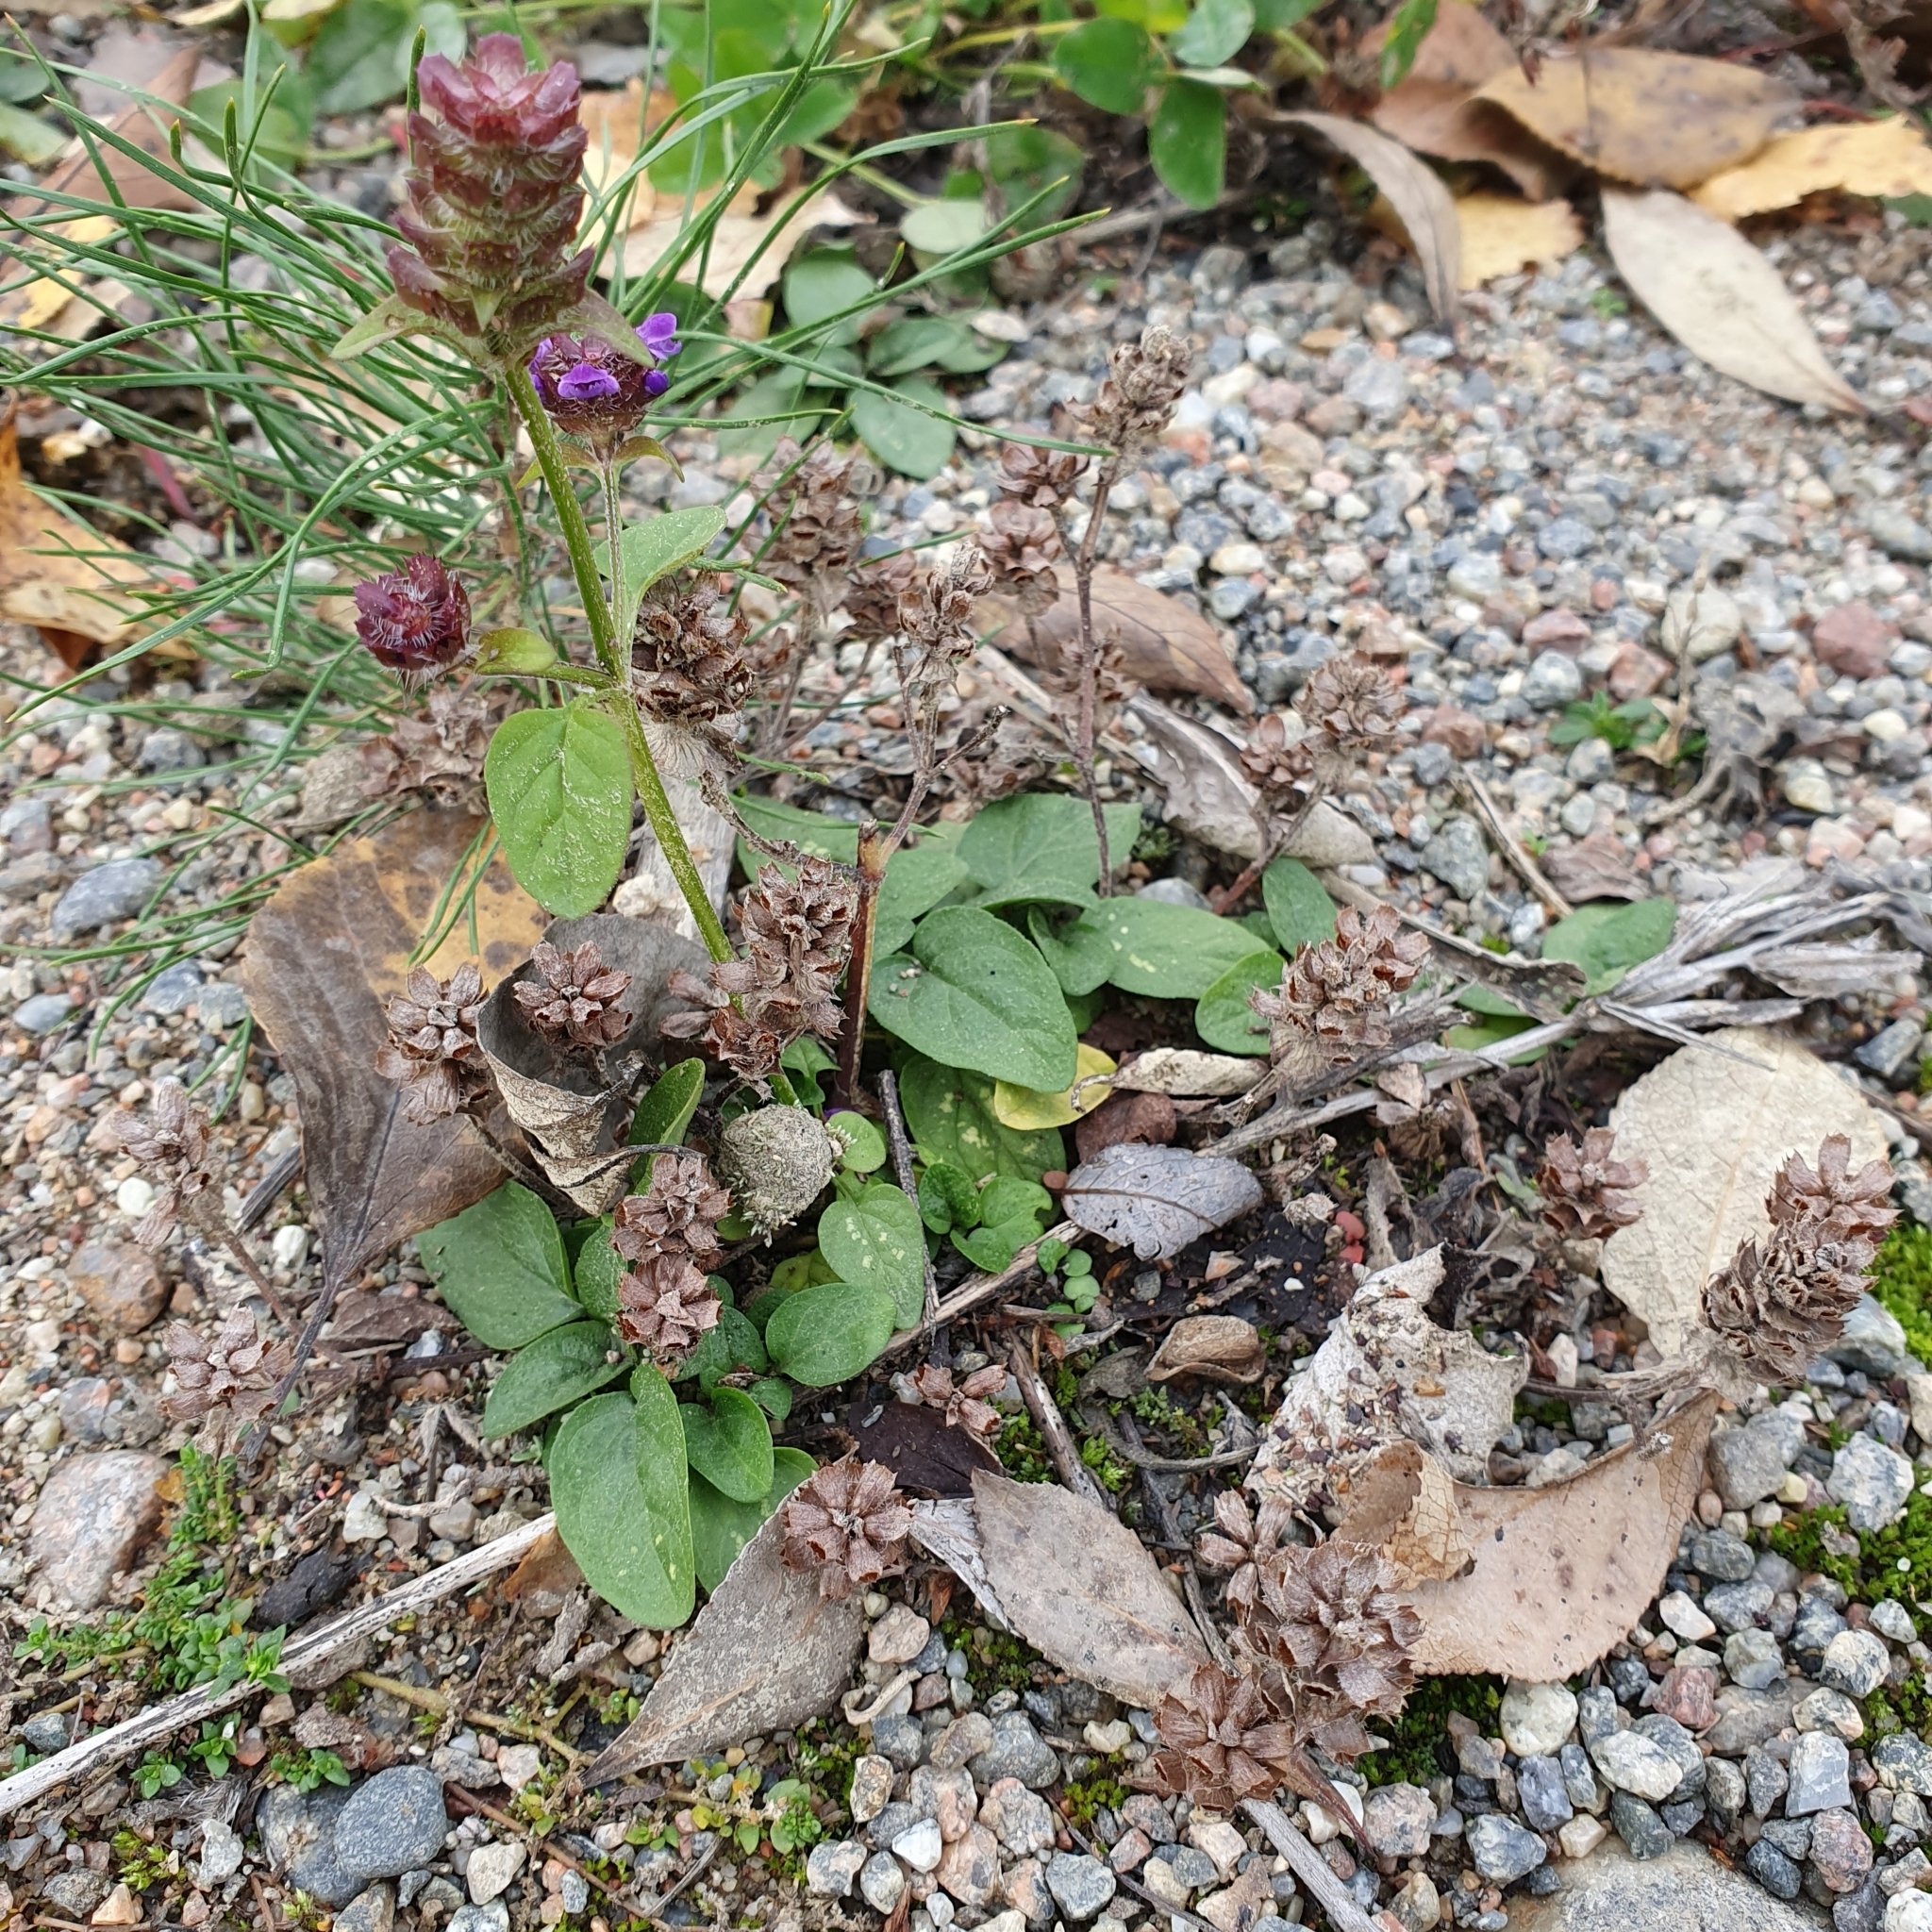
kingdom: Plantae
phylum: Tracheophyta
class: Magnoliopsida
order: Lamiales
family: Lamiaceae
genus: Prunella
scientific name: Prunella vulgaris
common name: Heal-all
